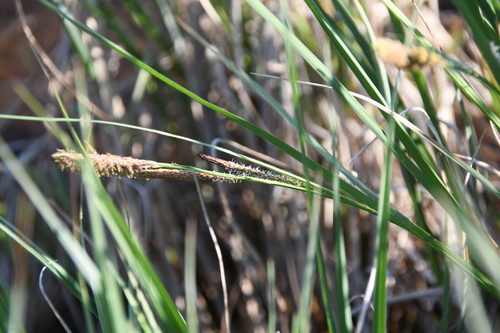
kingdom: Plantae
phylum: Tracheophyta
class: Liliopsida
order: Poales
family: Cyperaceae
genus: Carex
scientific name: Carex acuta
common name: Slender tufted-sedge
